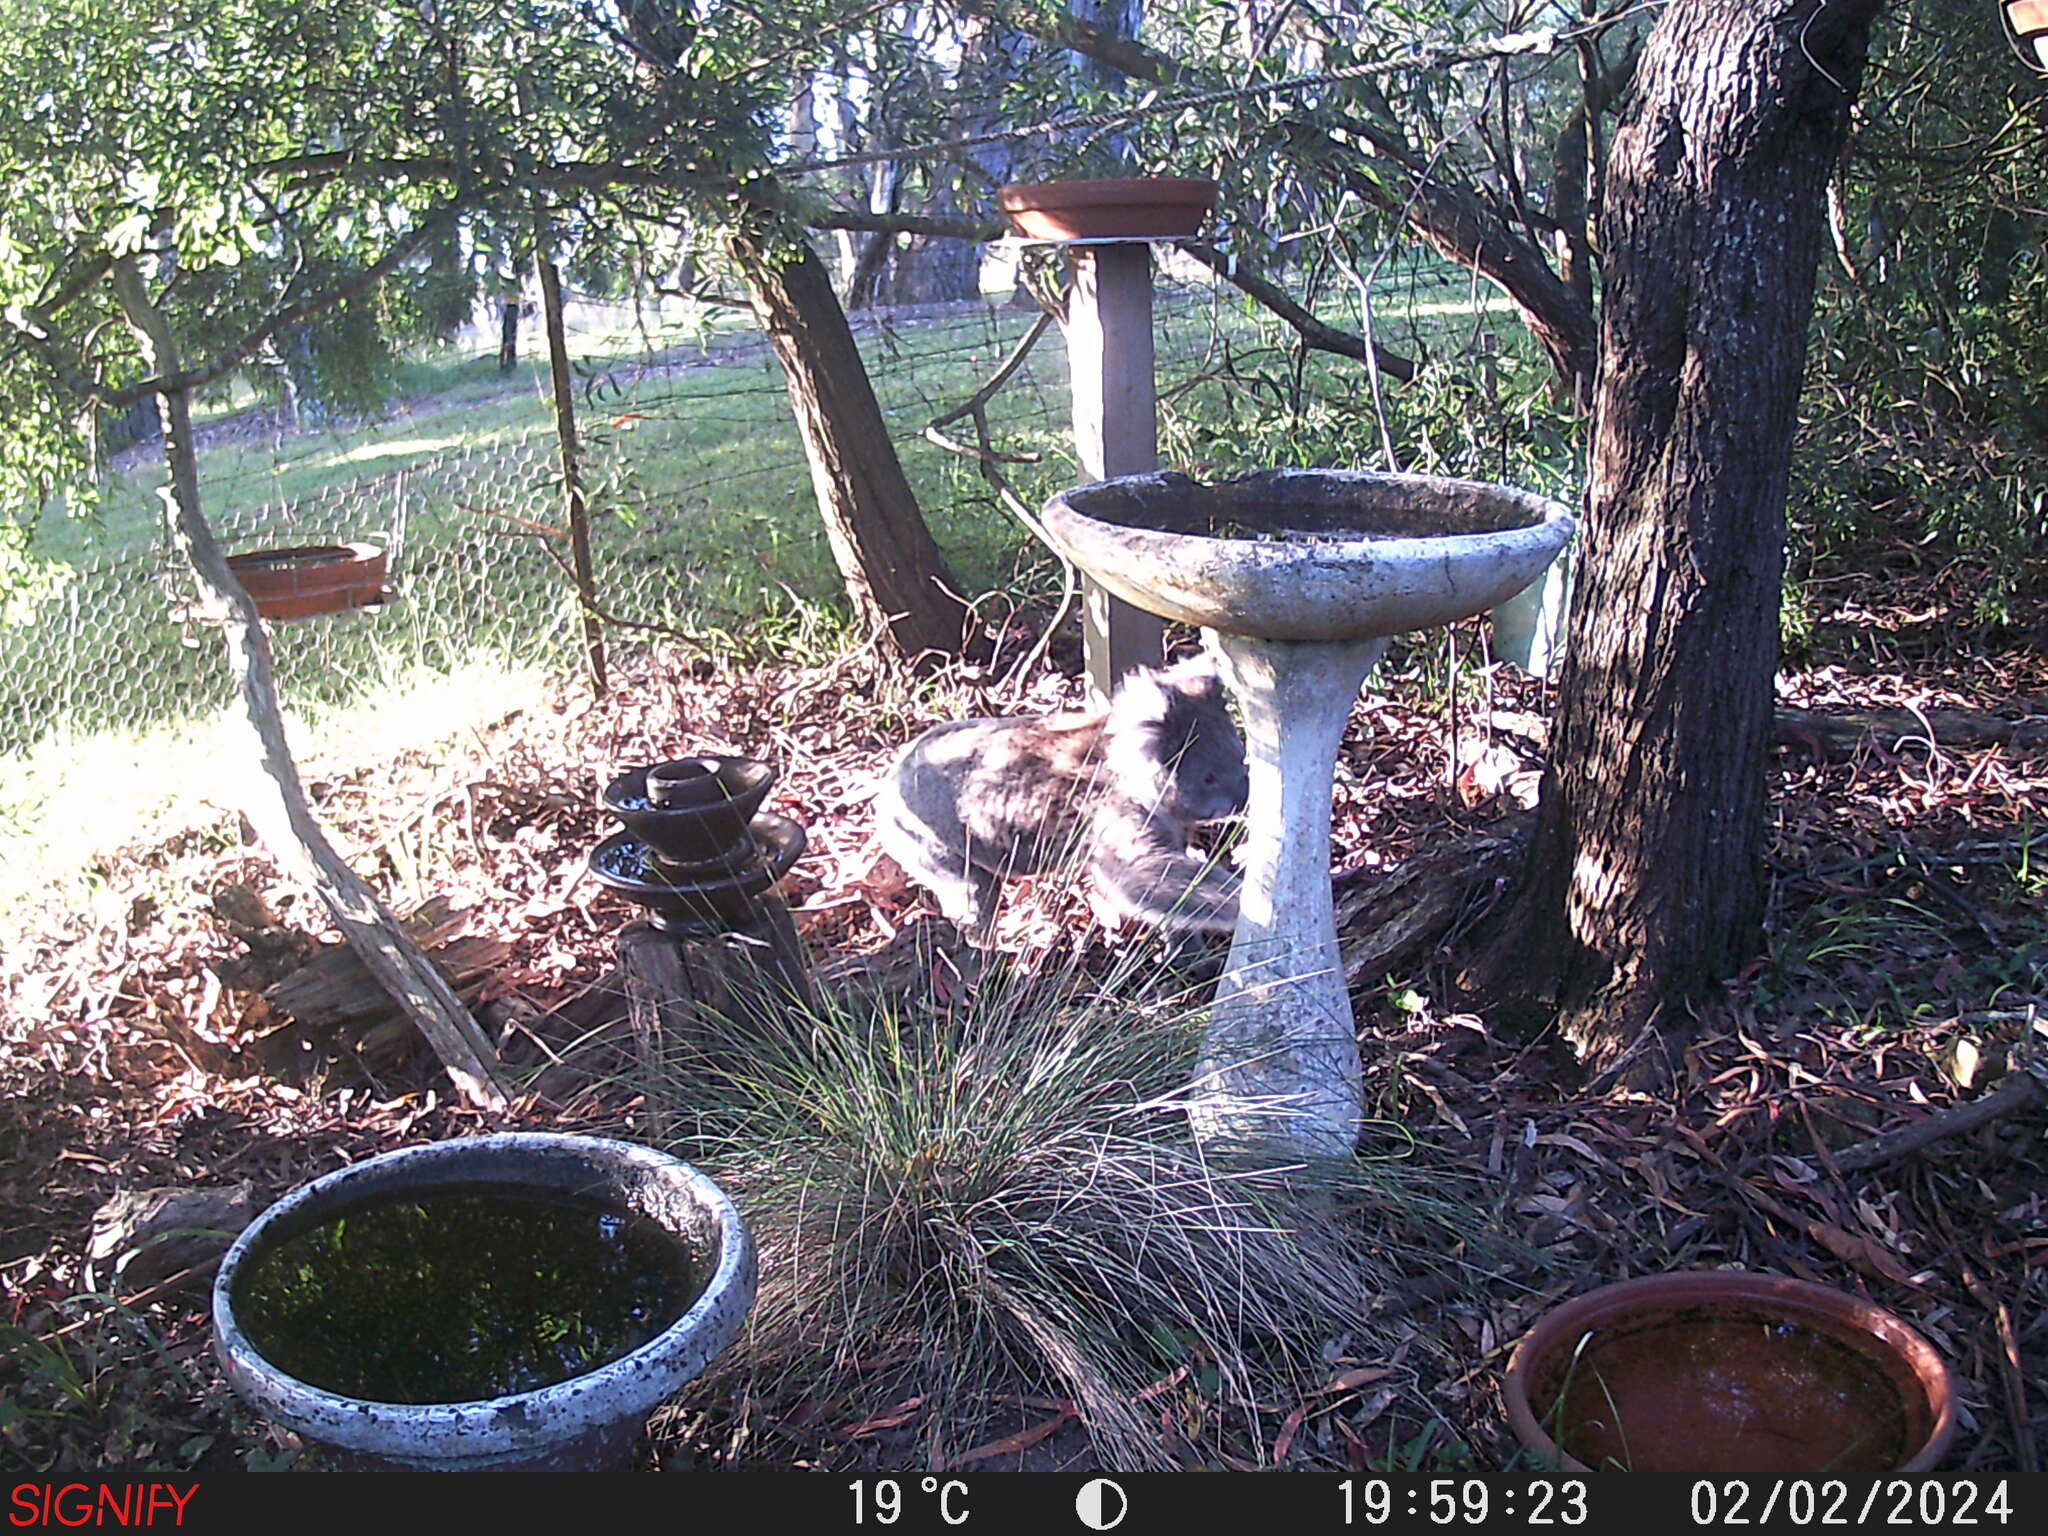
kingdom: Animalia
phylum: Chordata
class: Mammalia
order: Diprotodontia
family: Phascolarctidae
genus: Phascolarctos
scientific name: Phascolarctos cinereus
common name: Koala
